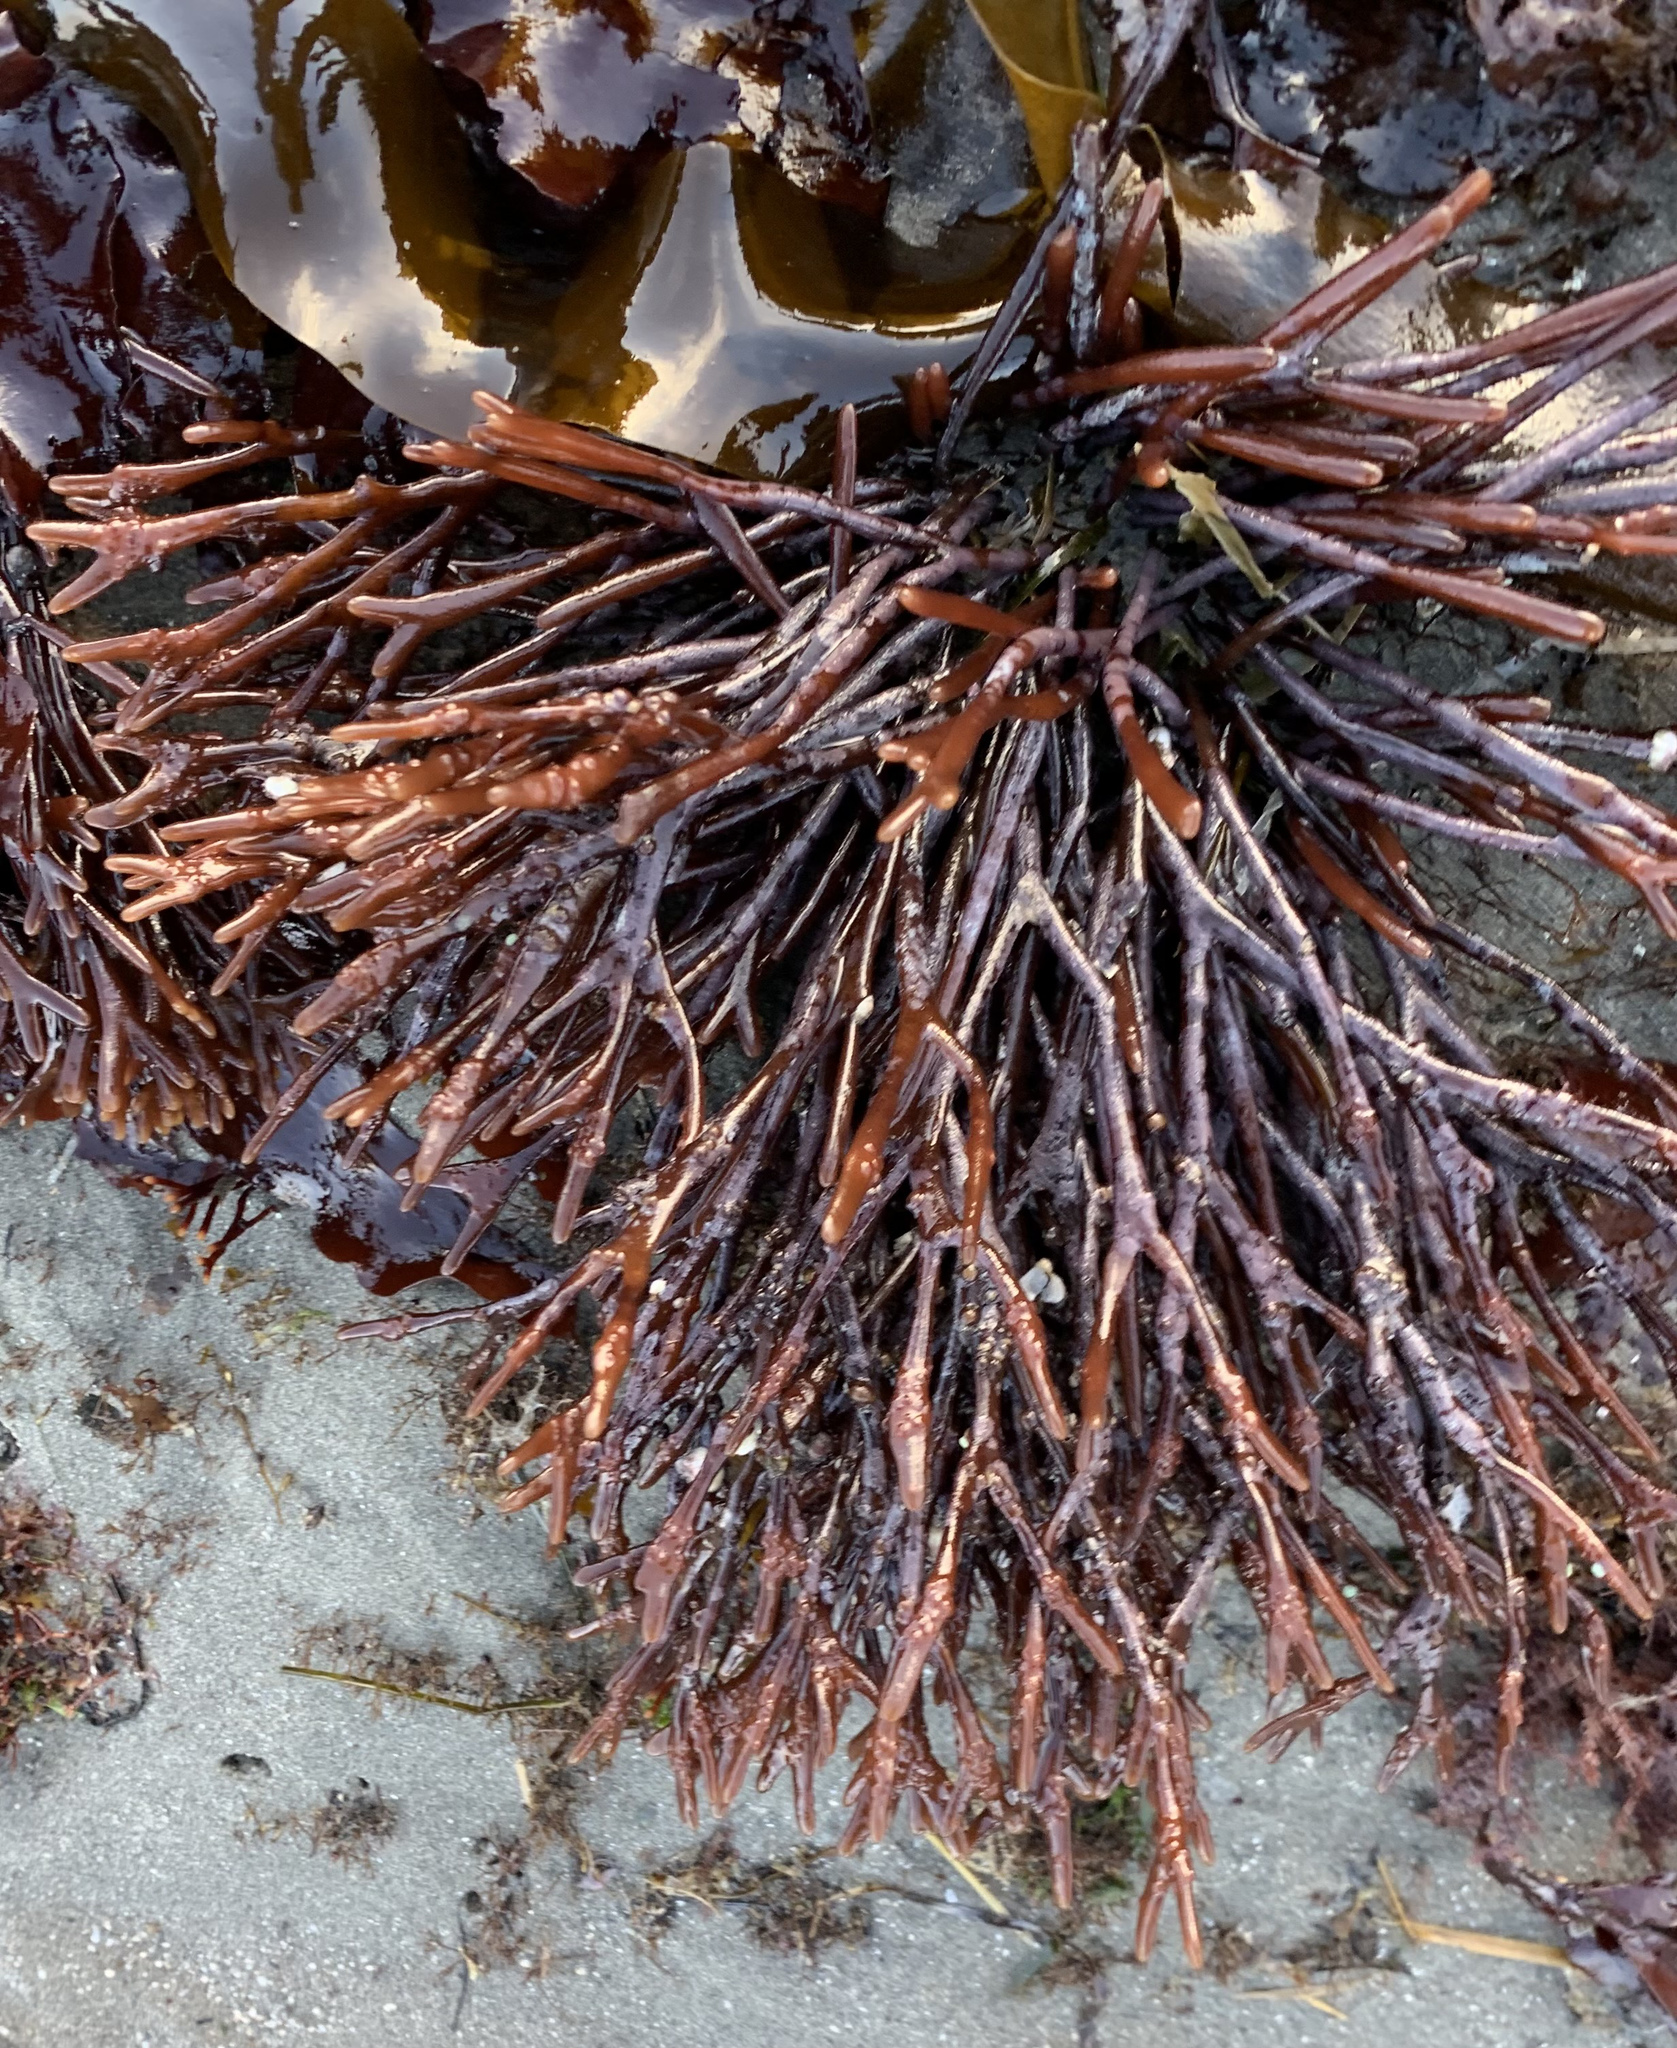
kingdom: Plantae
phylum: Rhodophyta
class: Florideophyceae
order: Gigartinales
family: Phyllophoraceae
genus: Ahnfeltiopsis
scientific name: Ahnfeltiopsis linearis
